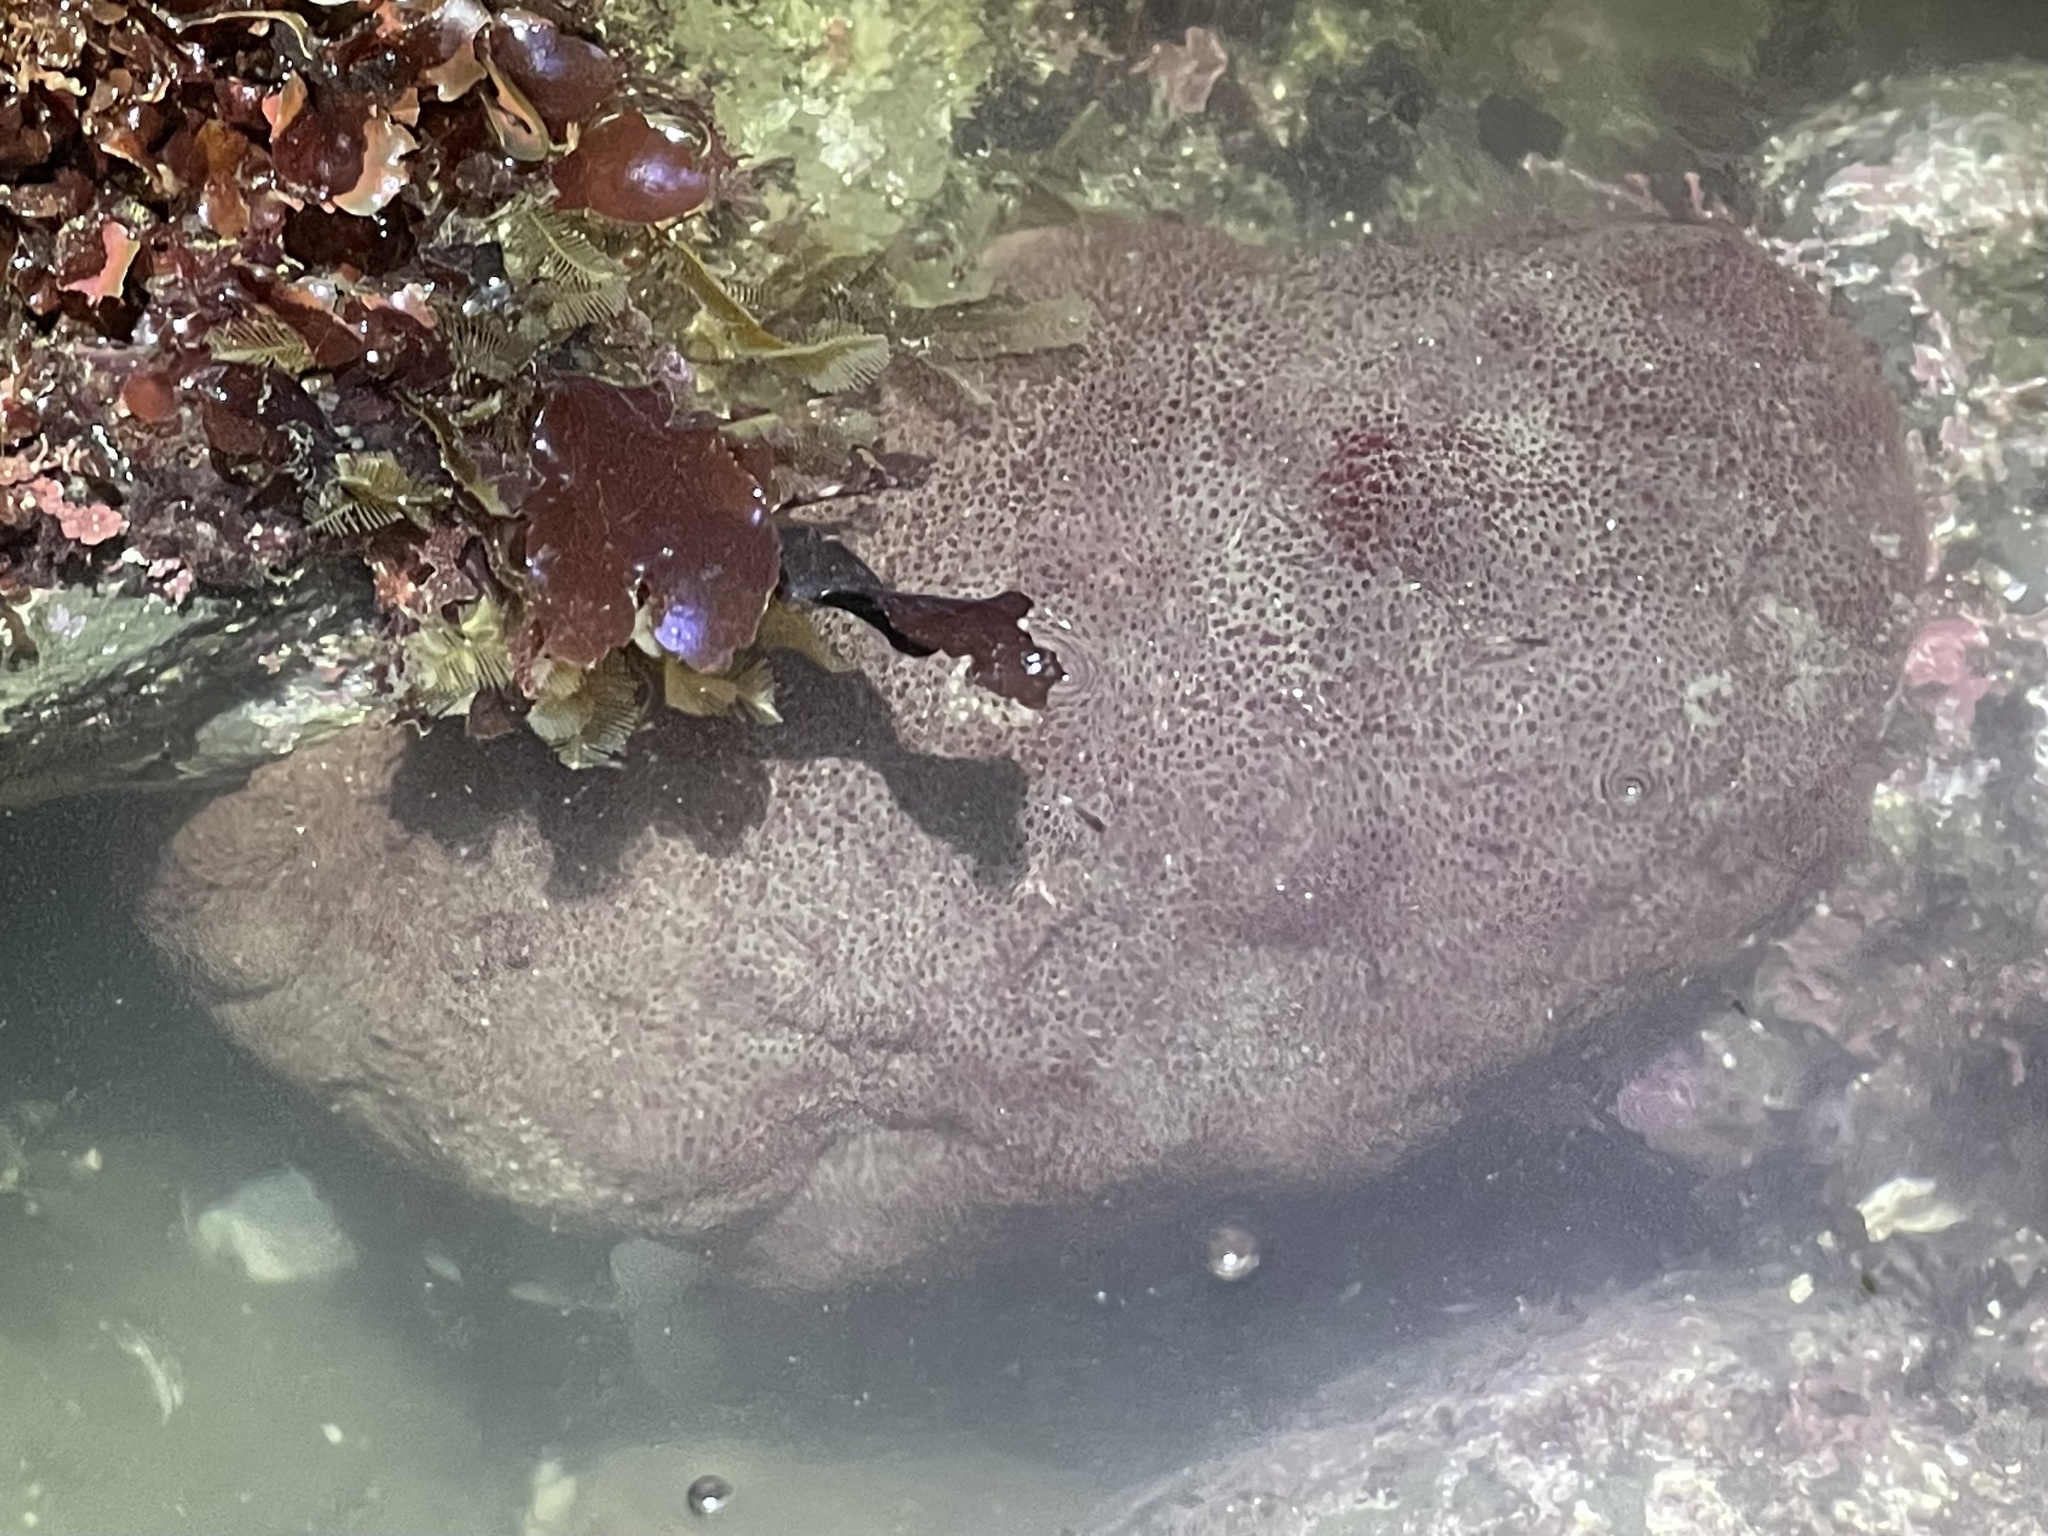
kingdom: Animalia
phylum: Mollusca
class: Polyplacophora
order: Chitonida
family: Acanthochitonidae
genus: Cryptochiton
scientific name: Cryptochiton stelleri
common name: Giant pacific chiton
